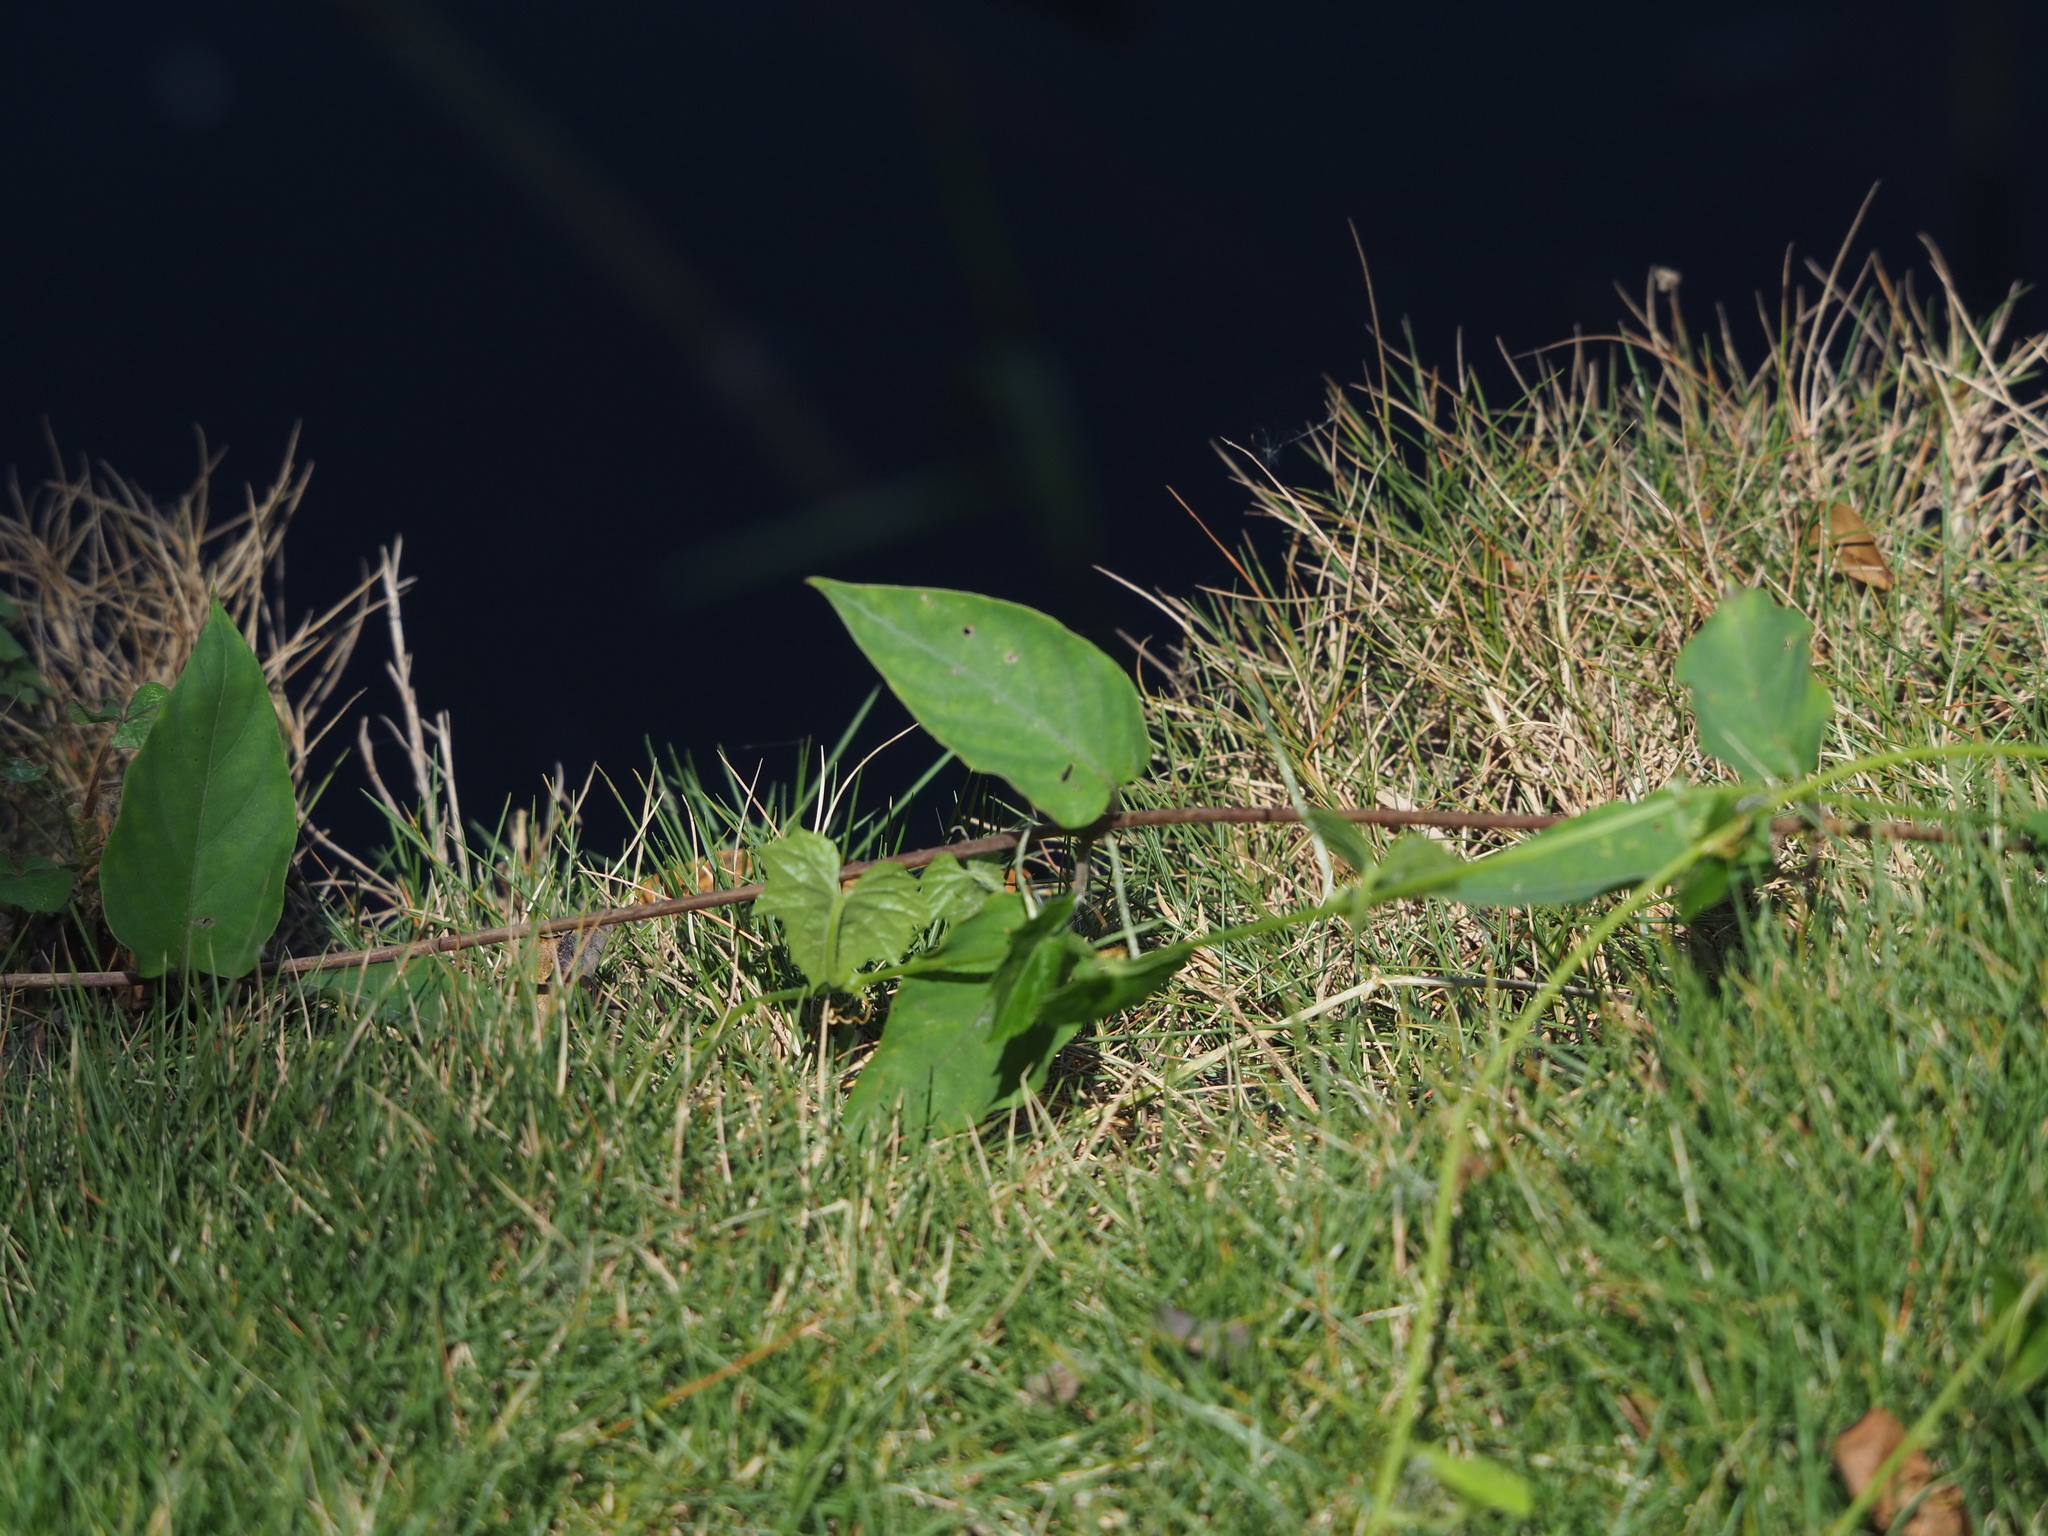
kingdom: Plantae
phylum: Tracheophyta
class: Magnoliopsida
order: Gentianales
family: Rubiaceae
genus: Paederia
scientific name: Paederia foetida
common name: Stinkvine
